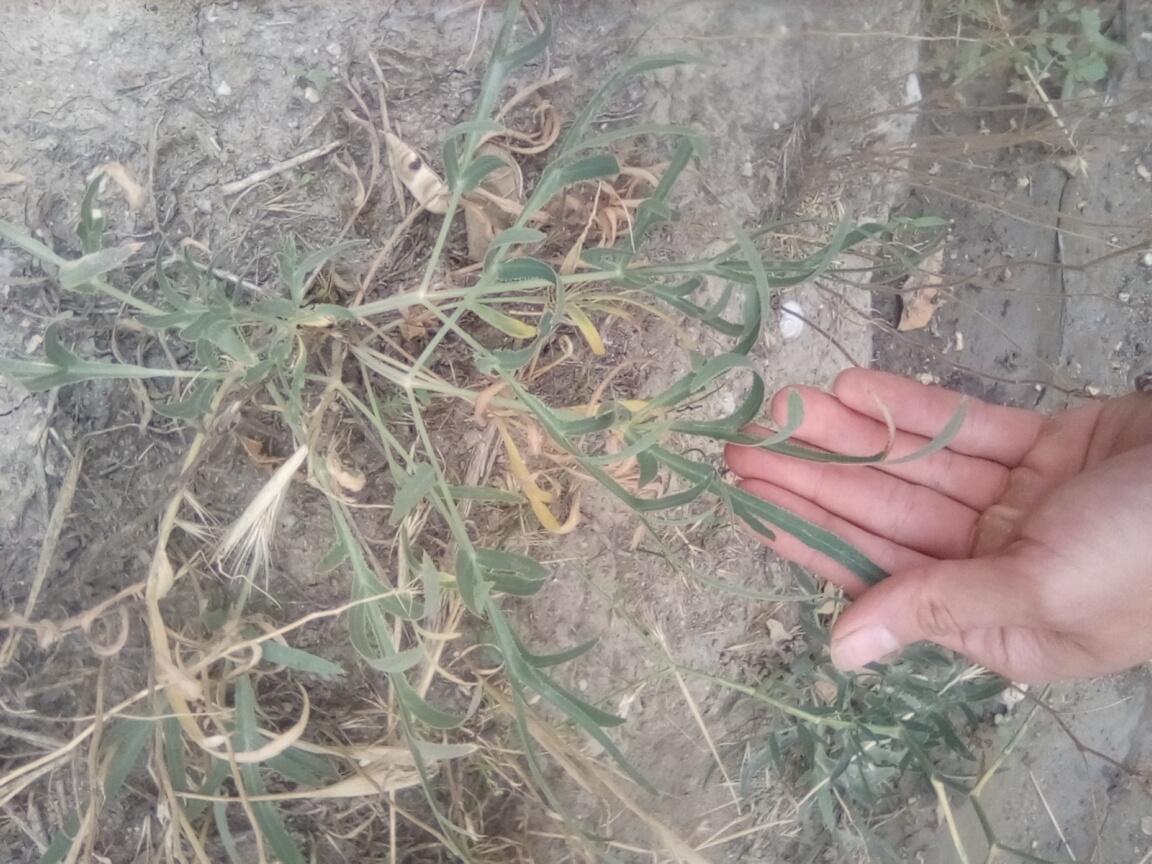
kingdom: Plantae
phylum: Tracheophyta
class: Magnoliopsida
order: Apiales
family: Apiaceae
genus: Falcaria
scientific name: Falcaria vulgaris
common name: Longleaf
